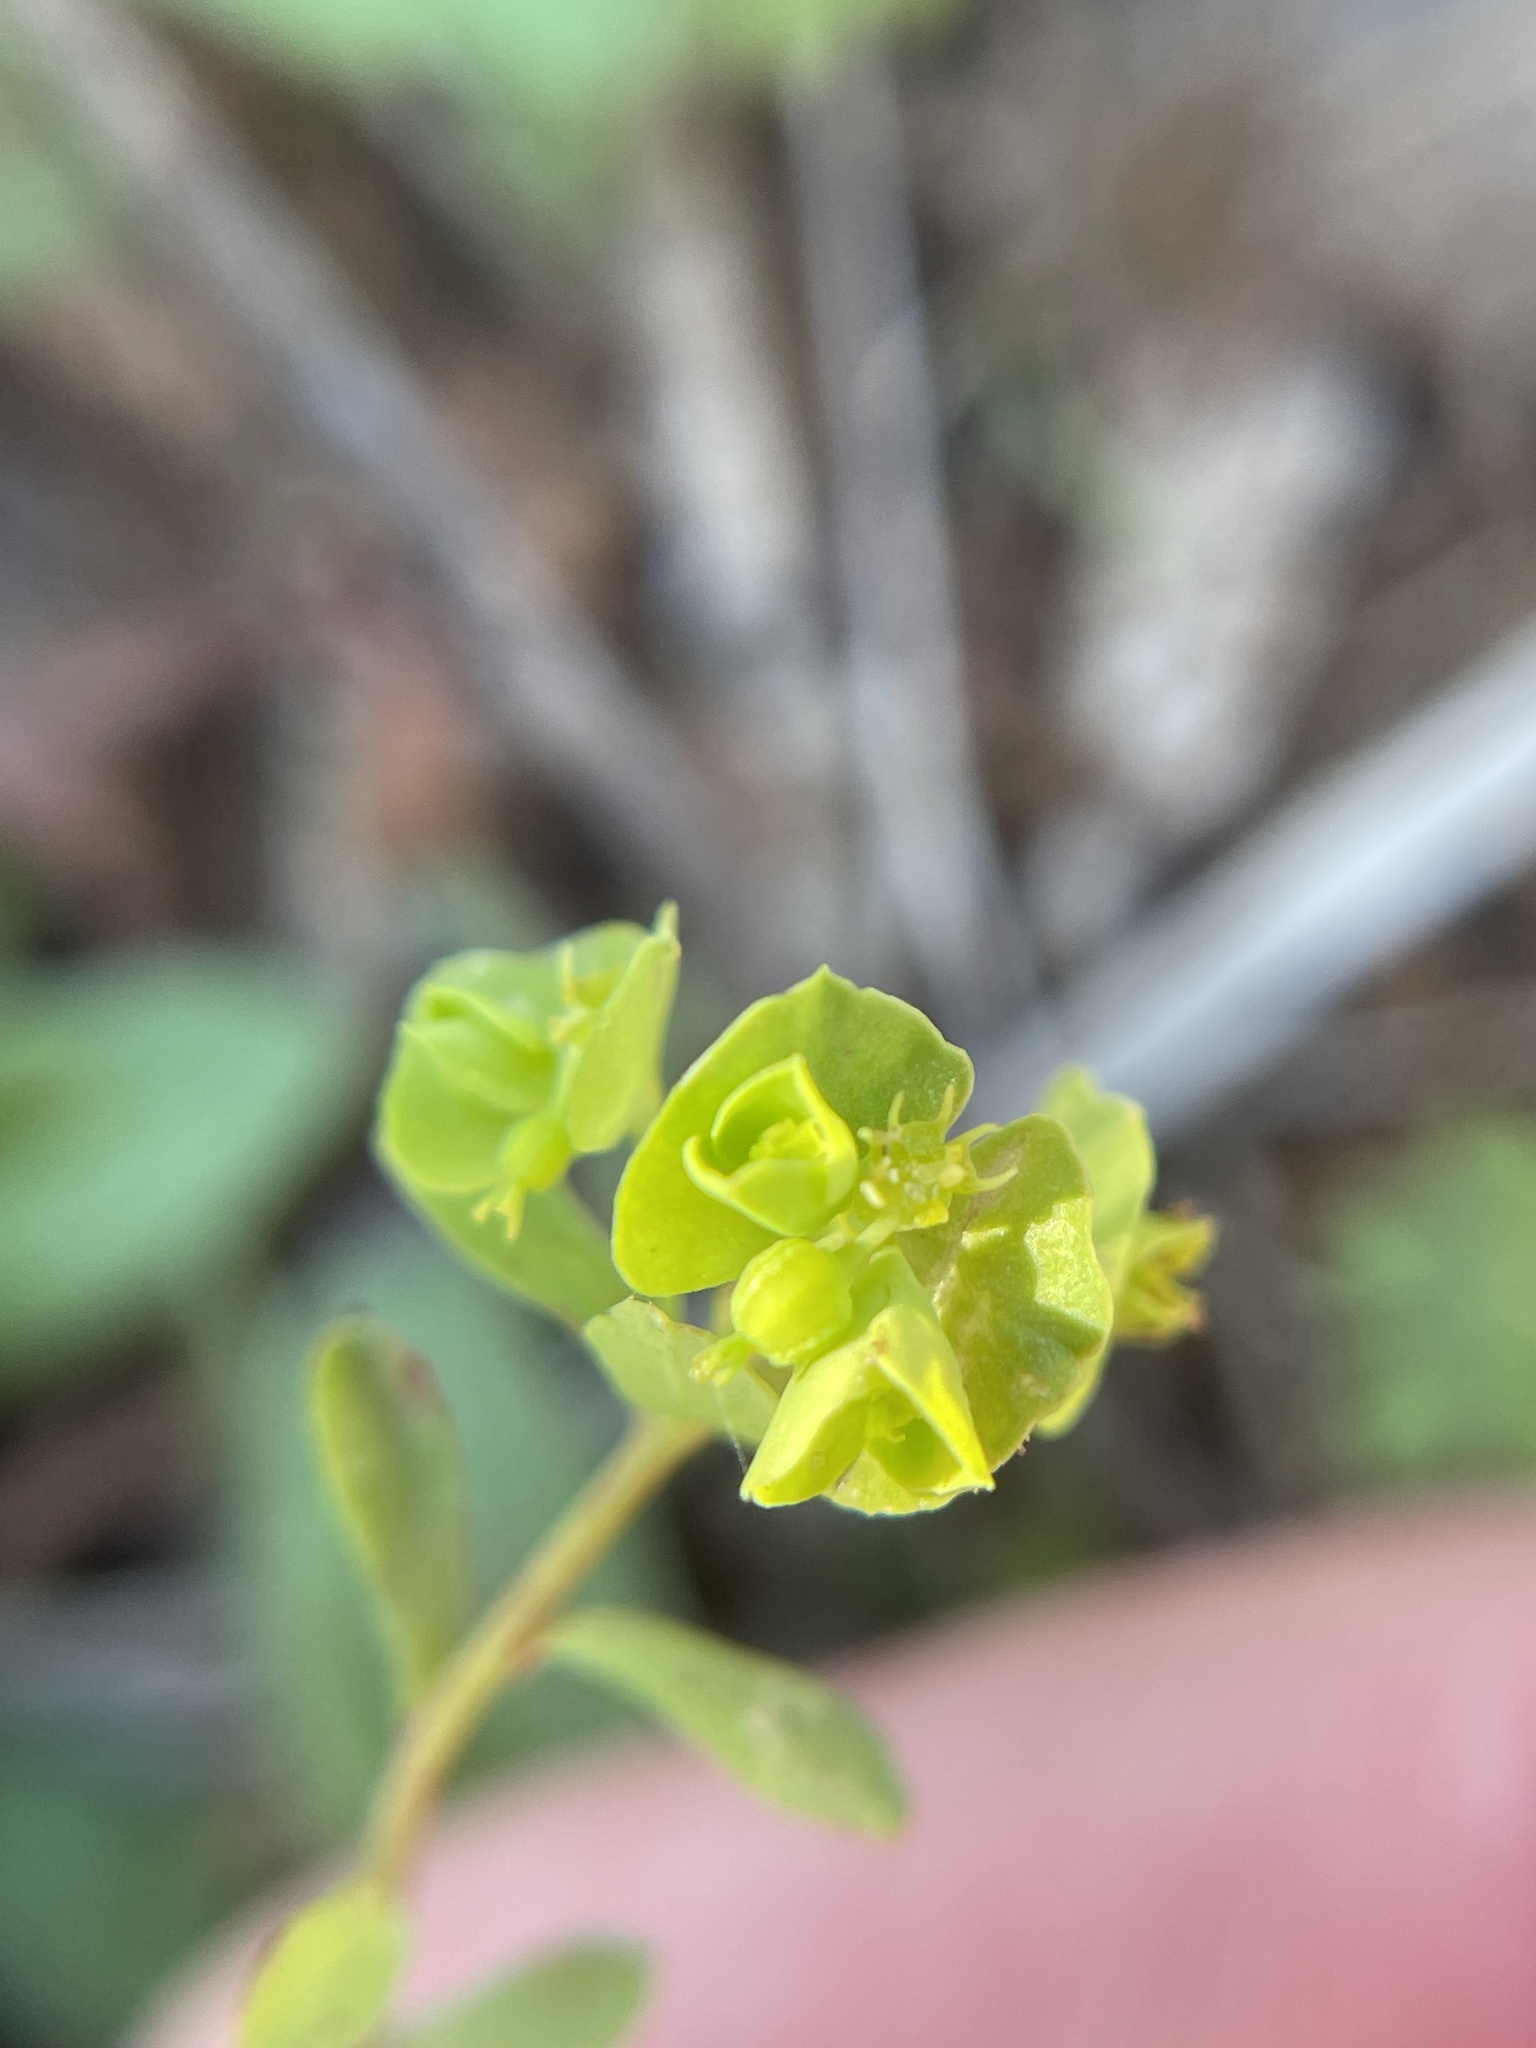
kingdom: Plantae
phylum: Tracheophyta
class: Magnoliopsida
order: Malpighiales
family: Euphorbiaceae
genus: Euphorbia
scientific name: Euphorbia tetrapora
